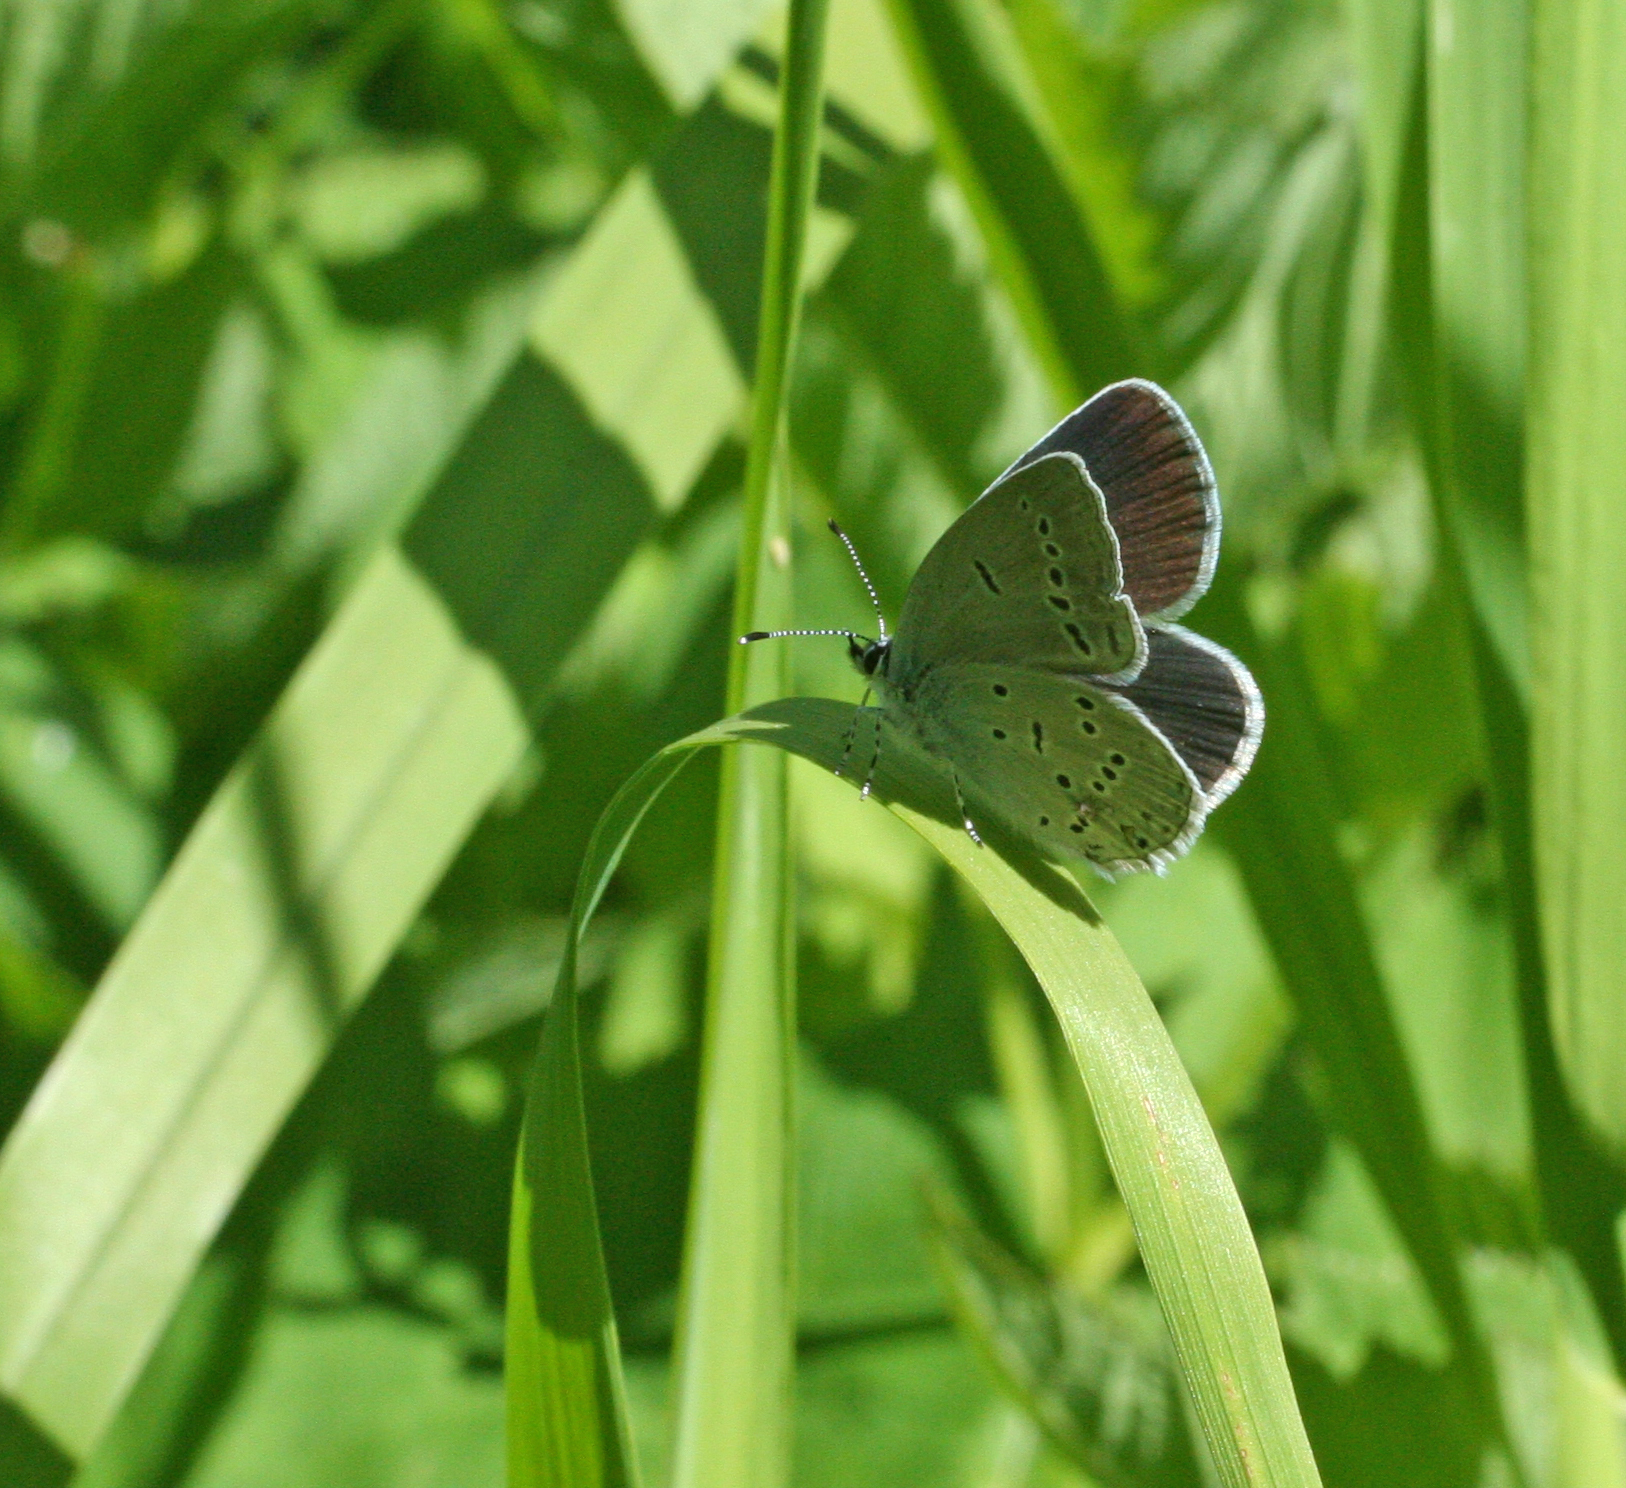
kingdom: Animalia
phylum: Arthropoda
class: Insecta
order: Lepidoptera
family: Lycaenidae
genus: Elkalyce
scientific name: Elkalyce alcetas
